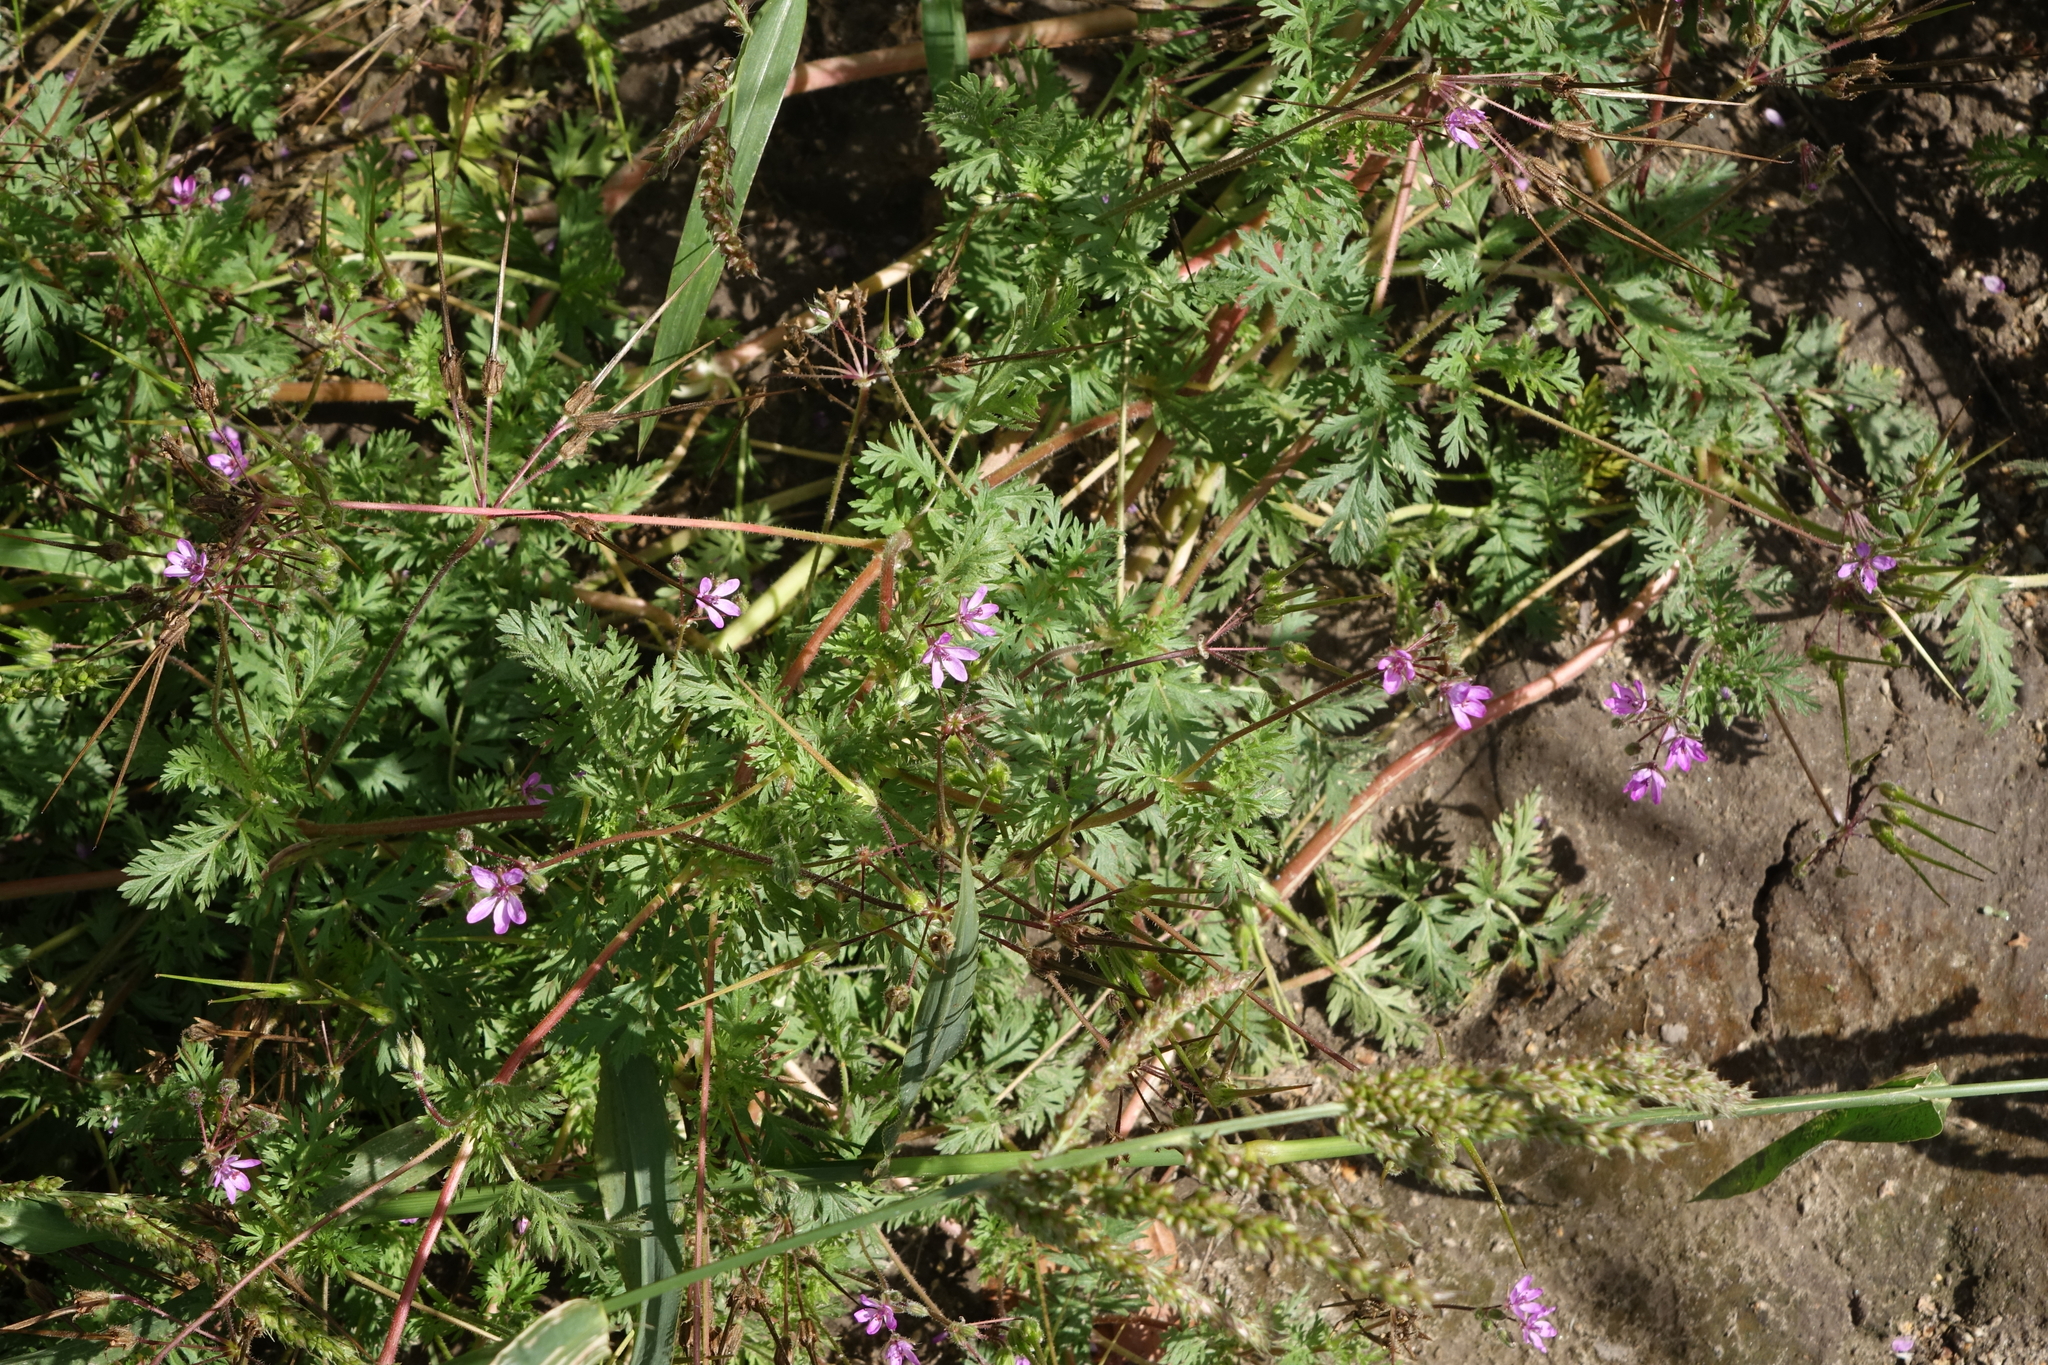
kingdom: Plantae
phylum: Tracheophyta
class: Magnoliopsida
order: Geraniales
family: Geraniaceae
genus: Erodium
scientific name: Erodium cicutarium
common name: Common stork's-bill
